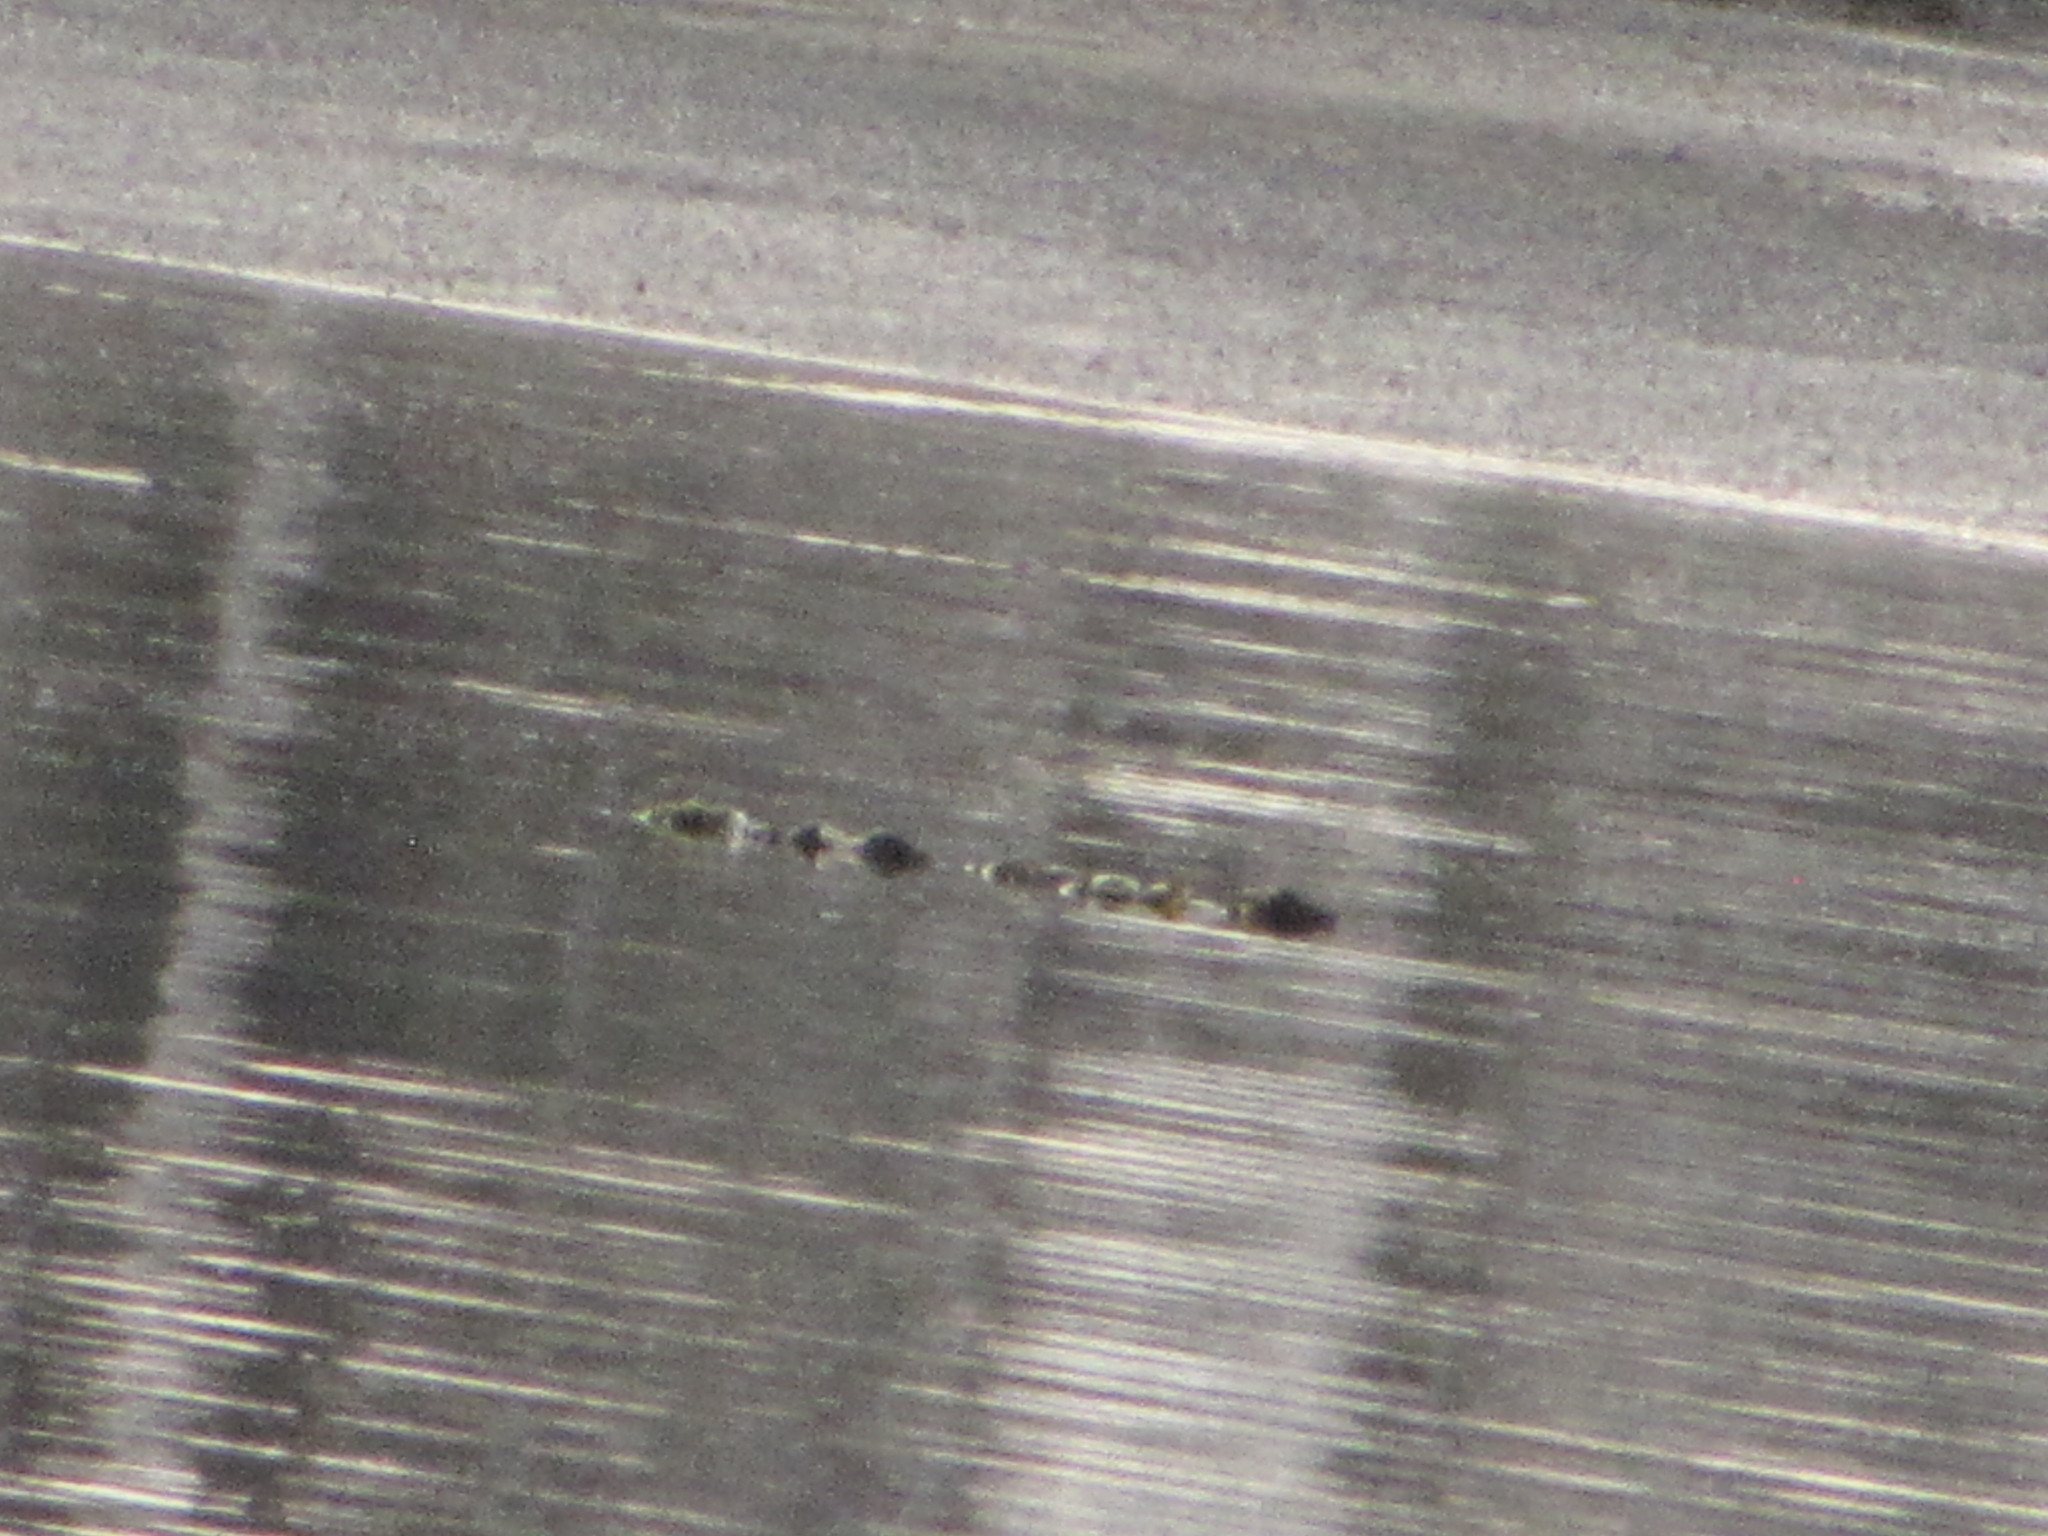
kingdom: Animalia
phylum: Chordata
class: Mammalia
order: Carnivora
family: Phocidae
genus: Phoca
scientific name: Phoca vitulina
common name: Harbor seal
